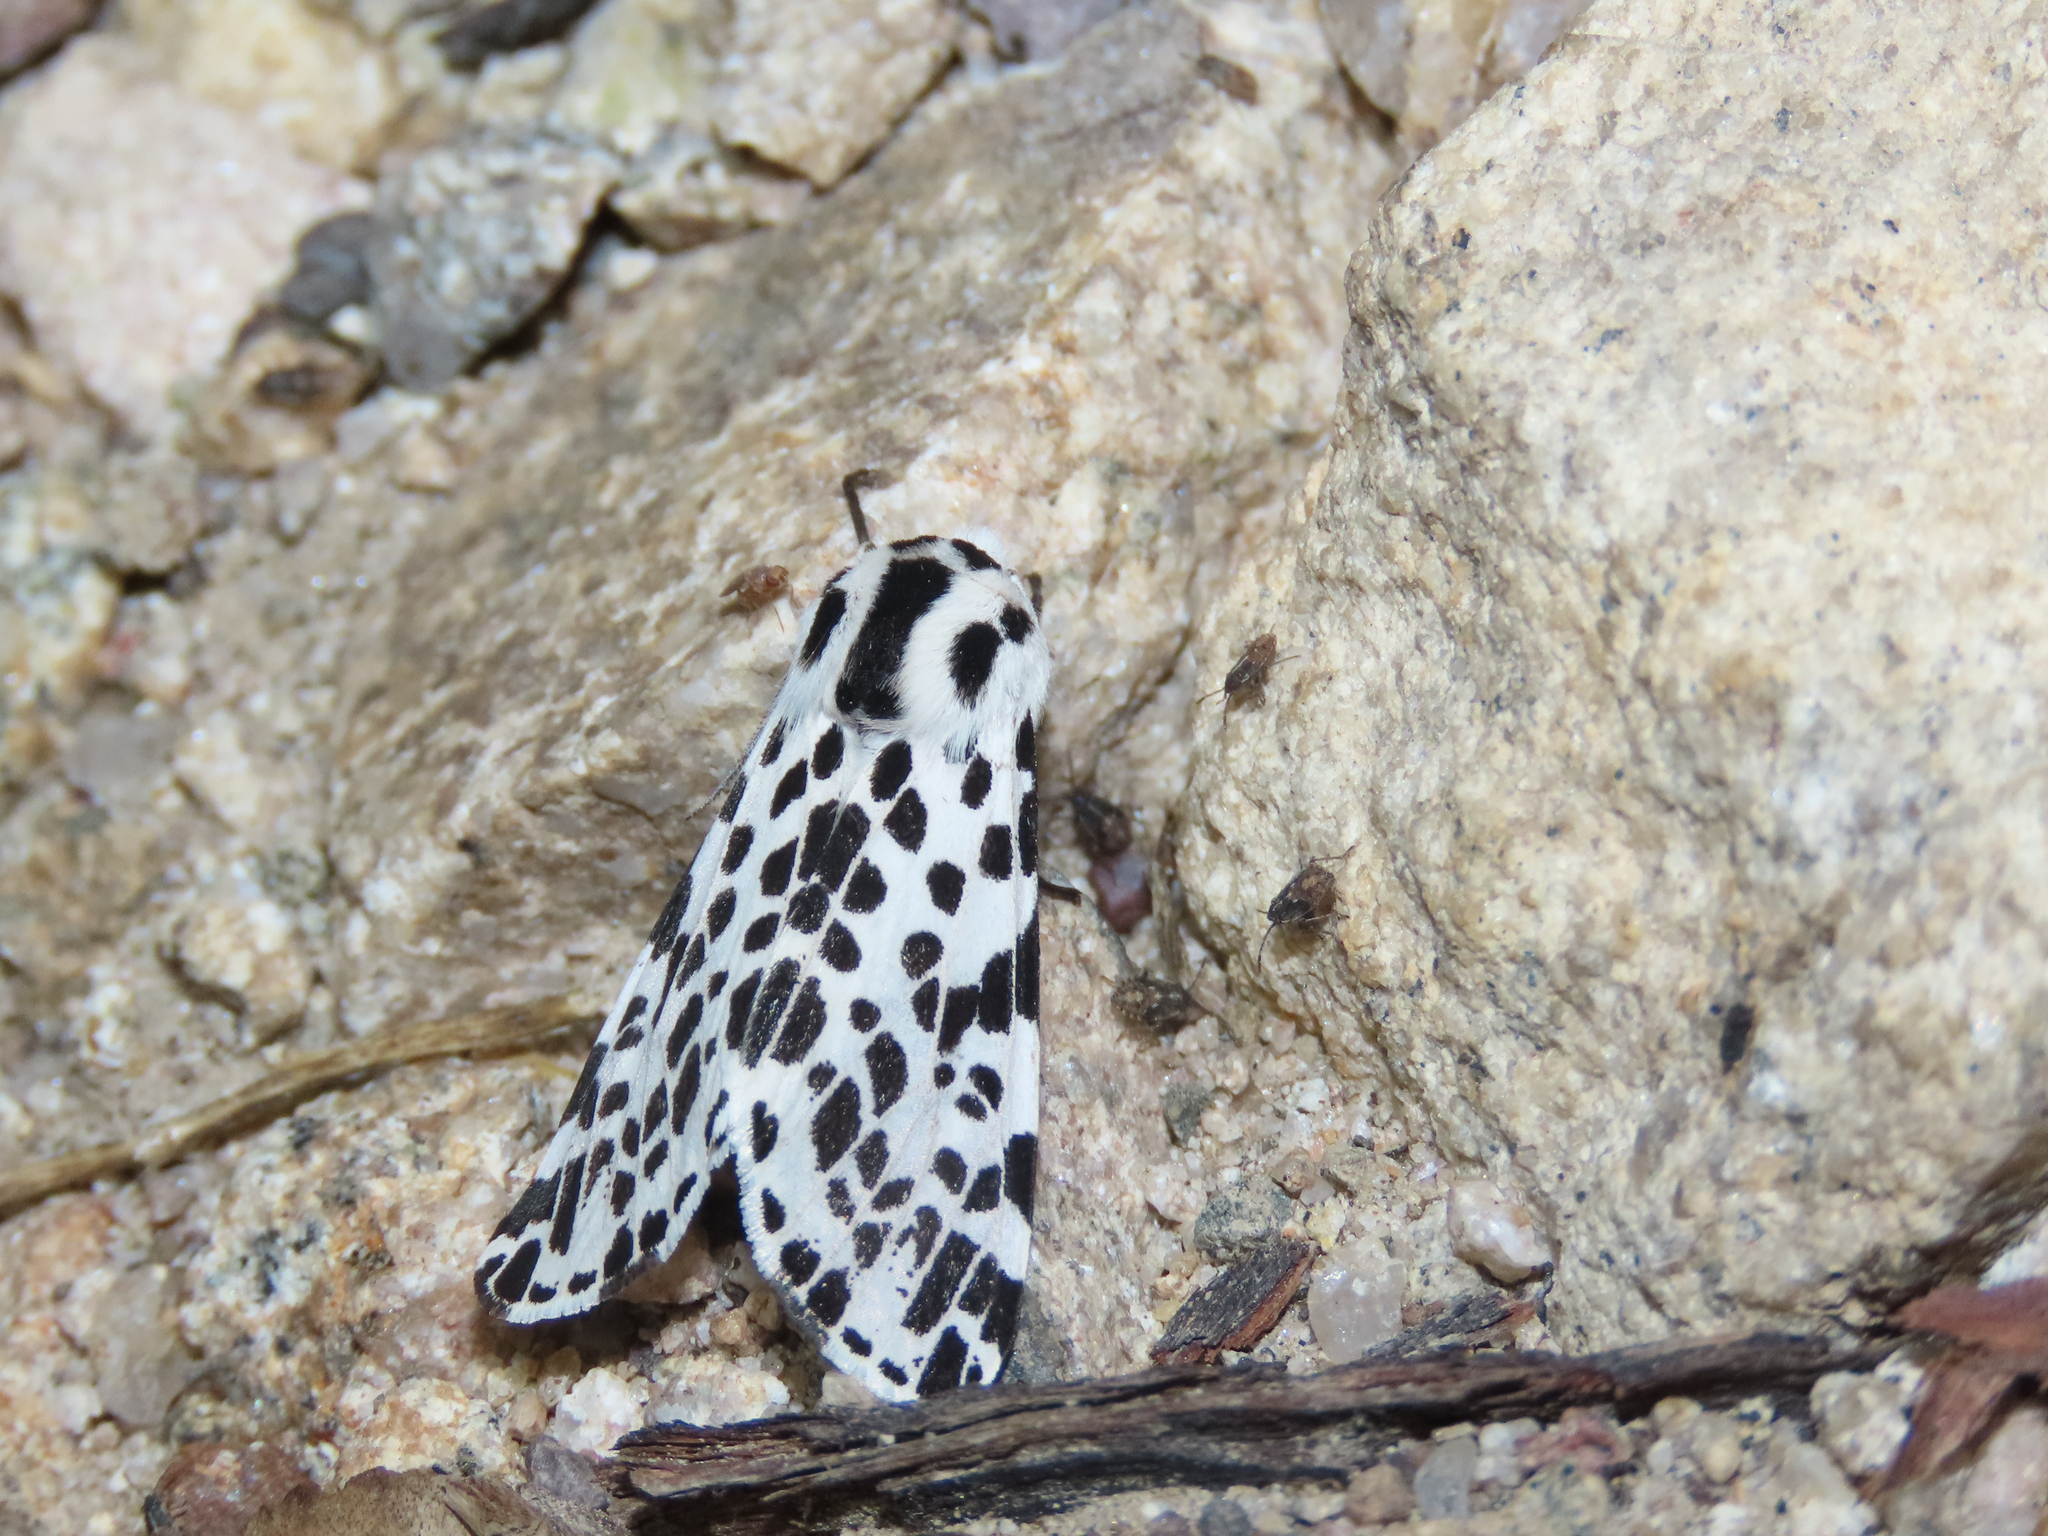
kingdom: Animalia
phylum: Arthropoda
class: Insecta
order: Lepidoptera
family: Erebidae
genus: Hypercompe
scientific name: Hypercompe permaculata
